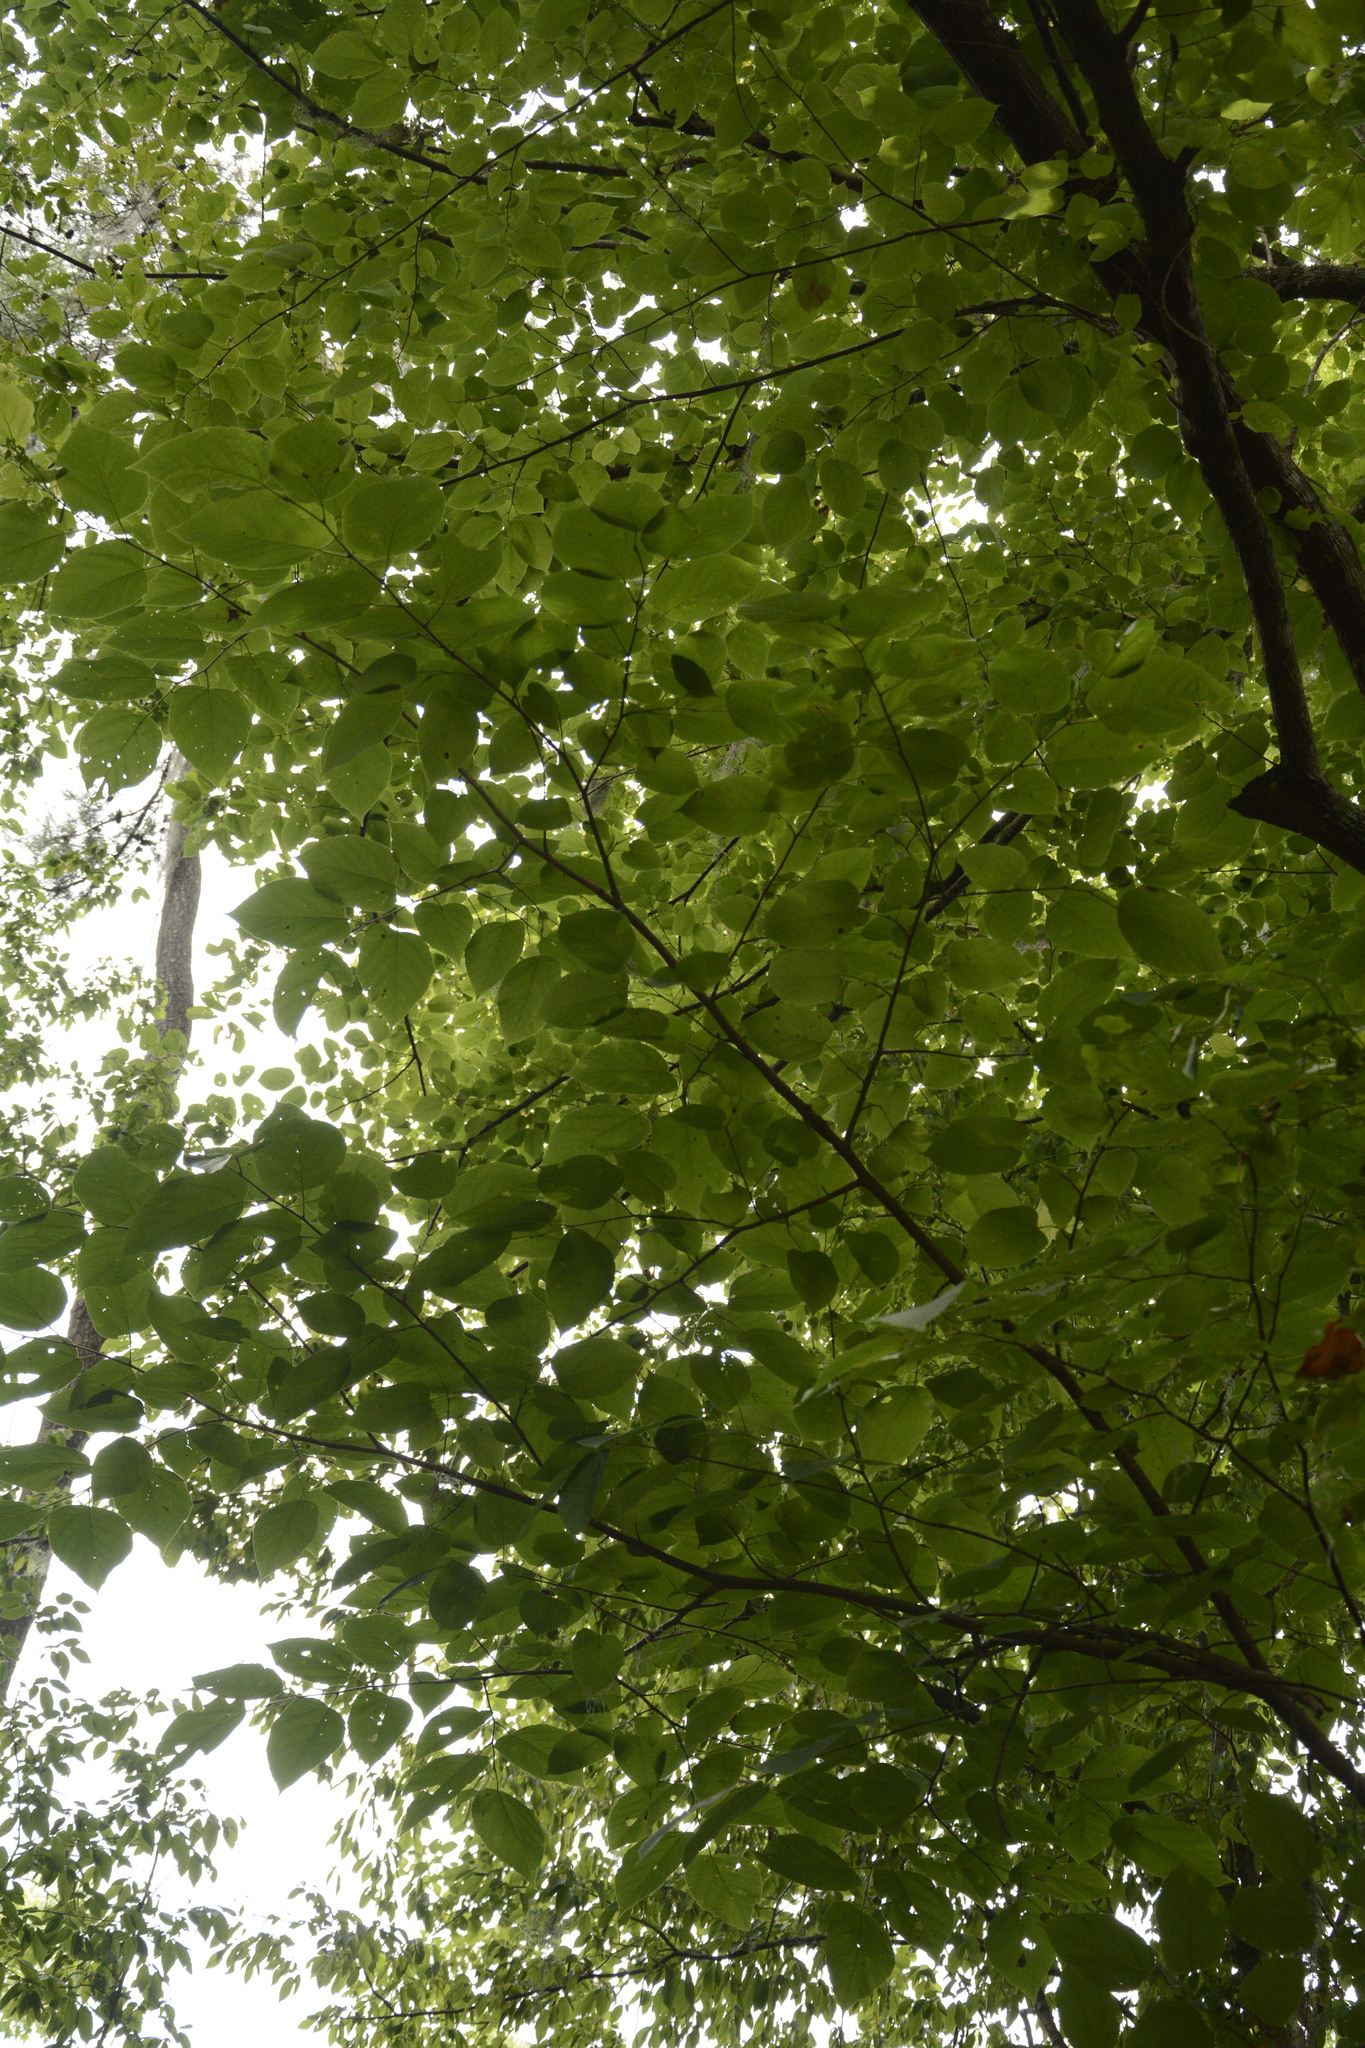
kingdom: Plantae
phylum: Tracheophyta
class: Magnoliopsida
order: Malvales
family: Malvaceae
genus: Tilia
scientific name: Tilia americana
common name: Basswood
